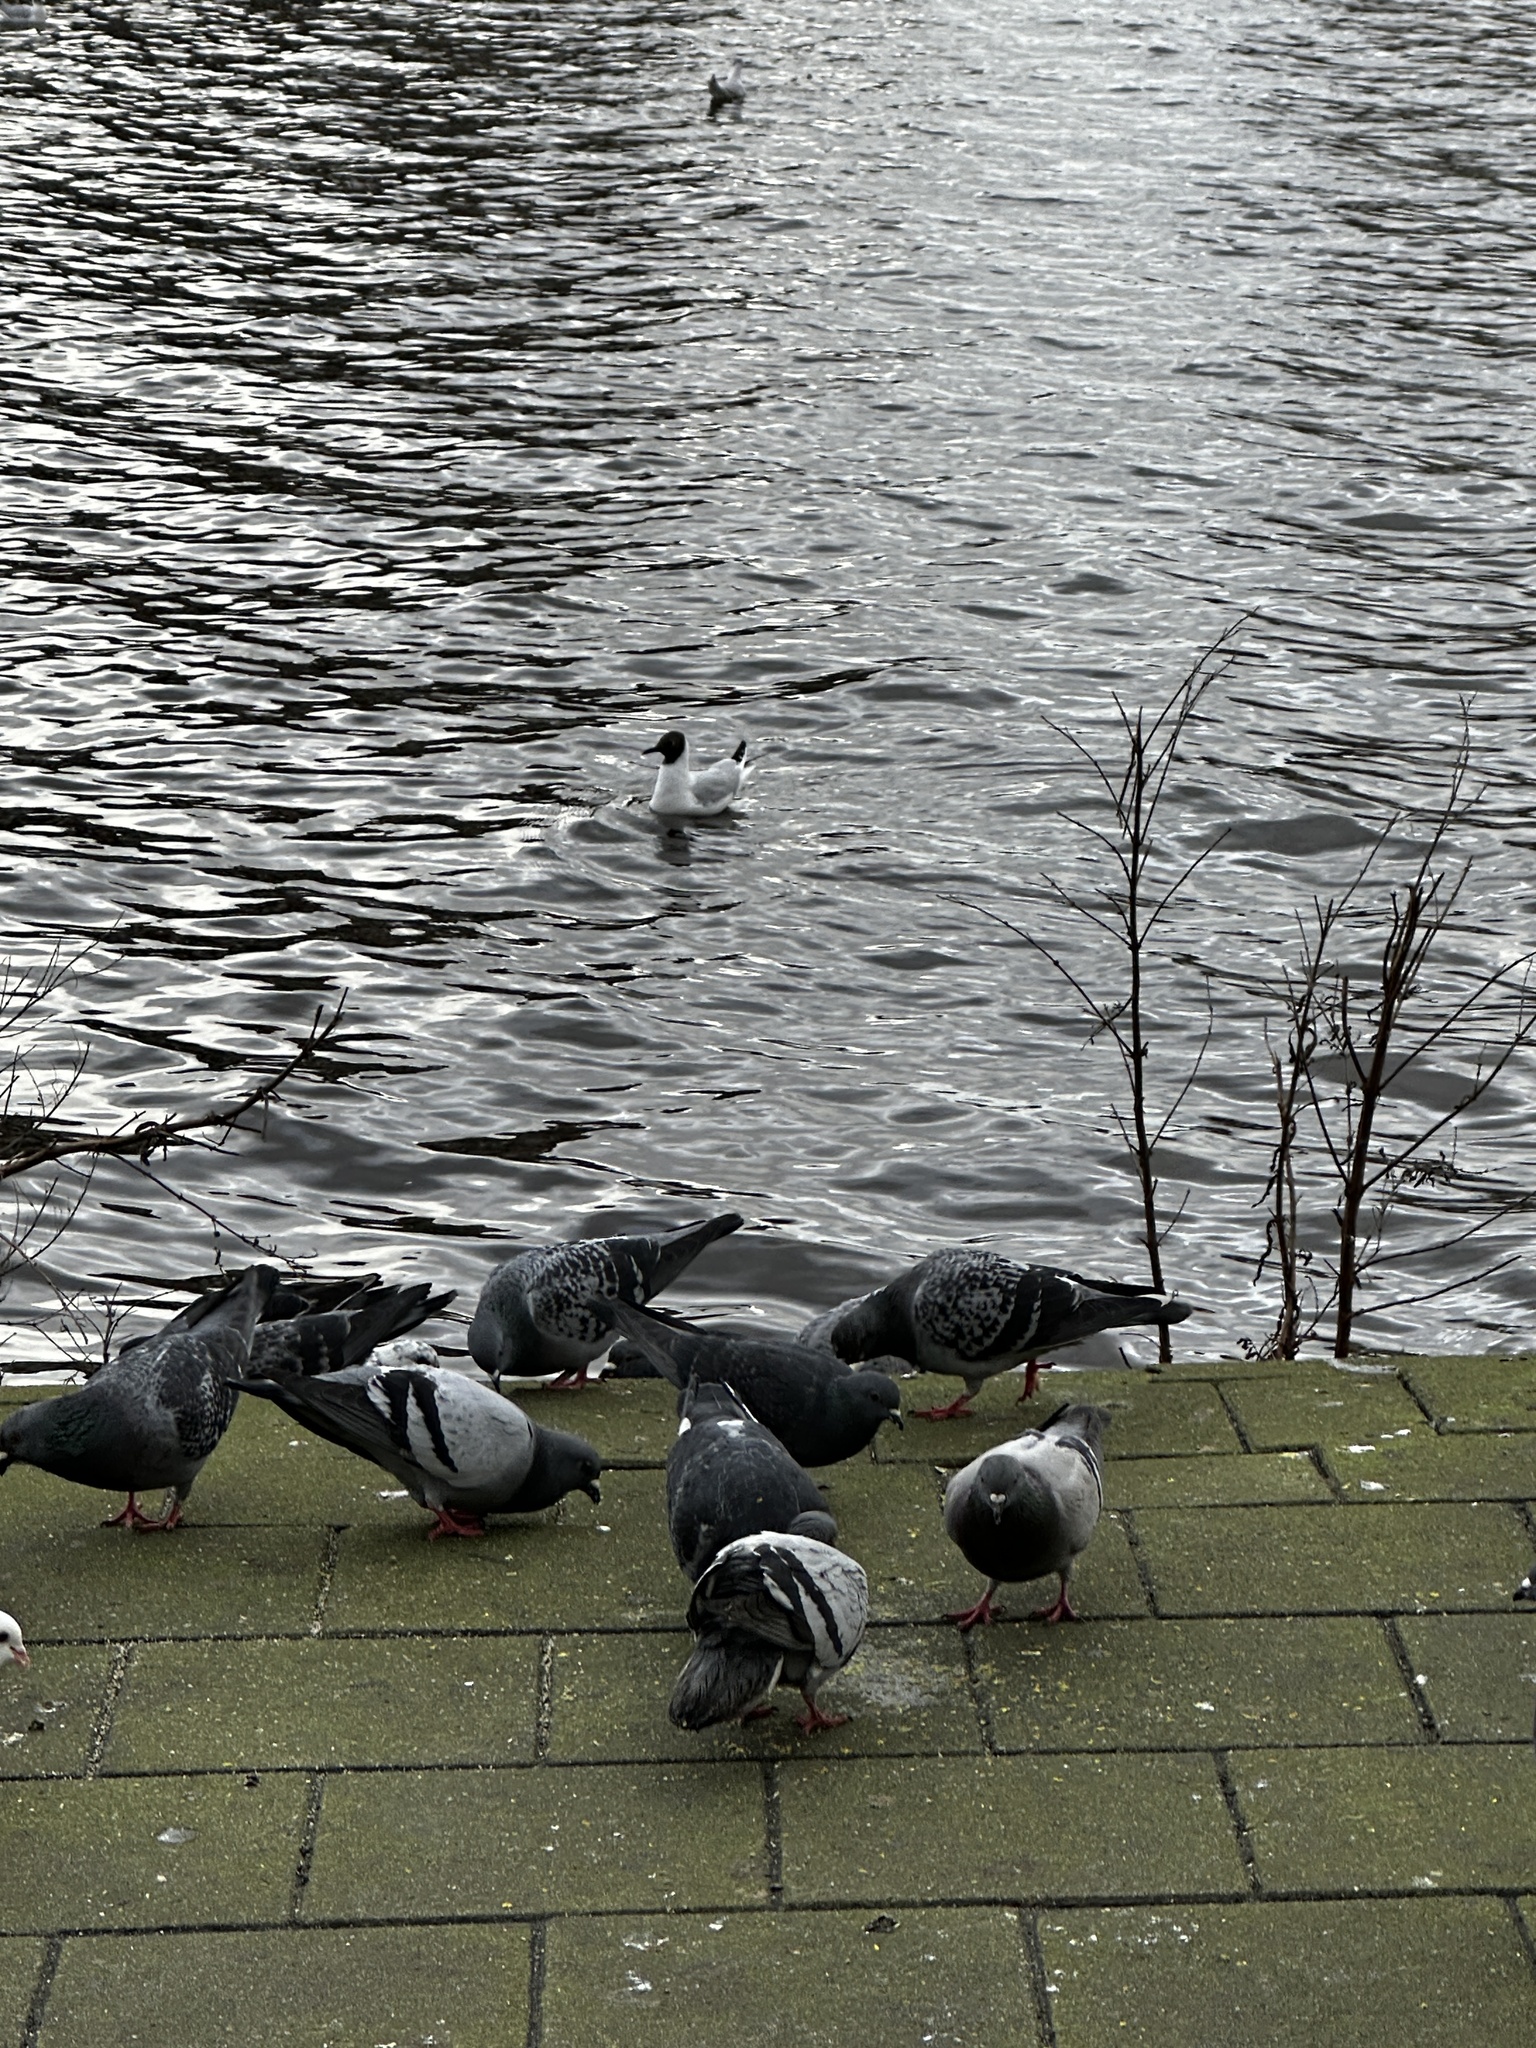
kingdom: Animalia
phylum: Chordata
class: Aves
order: Columbiformes
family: Columbidae
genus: Columba
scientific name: Columba livia
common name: Rock pigeon
